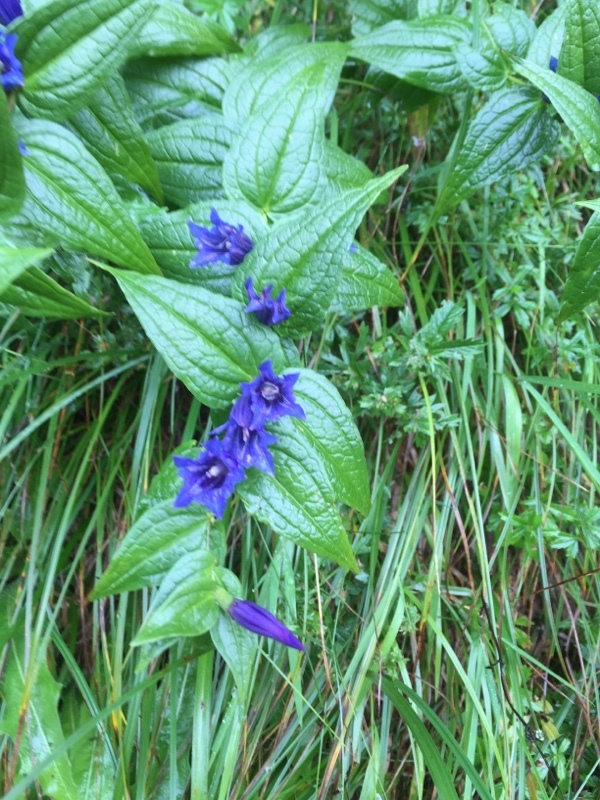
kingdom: Plantae
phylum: Tracheophyta
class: Magnoliopsida
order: Gentianales
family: Gentianaceae
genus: Gentiana
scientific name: Gentiana asclepiadea
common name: Willow gentian
